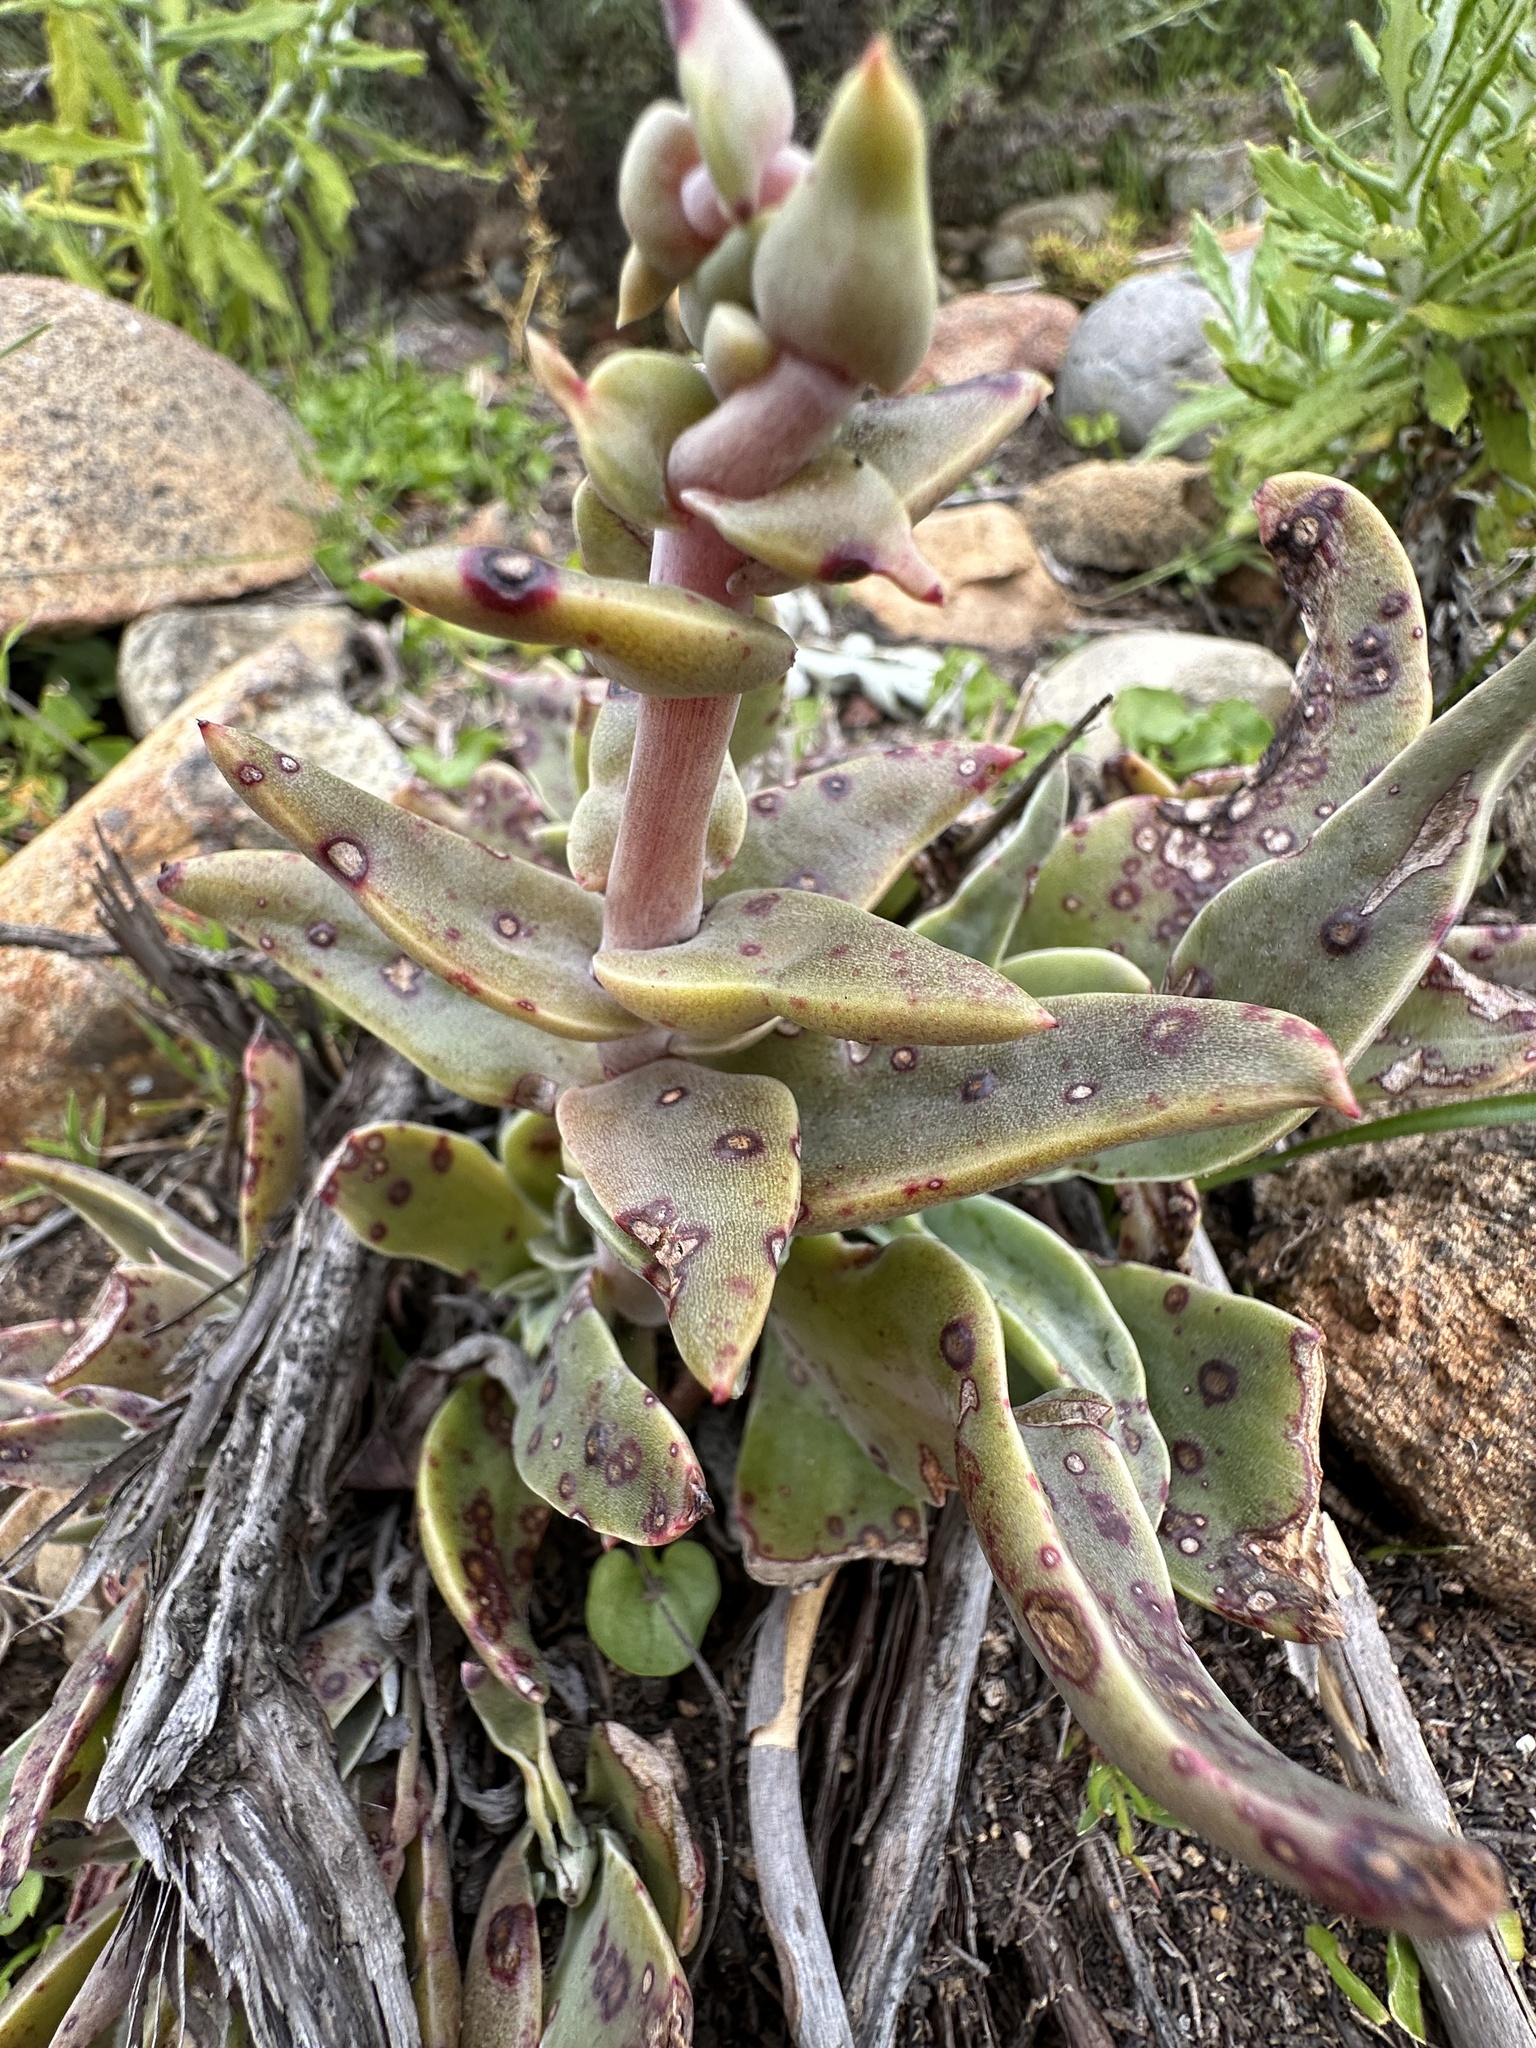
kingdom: Plantae
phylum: Tracheophyta
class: Magnoliopsida
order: Saxifragales
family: Crassulaceae
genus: Dudleya
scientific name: Dudleya lanceolata
